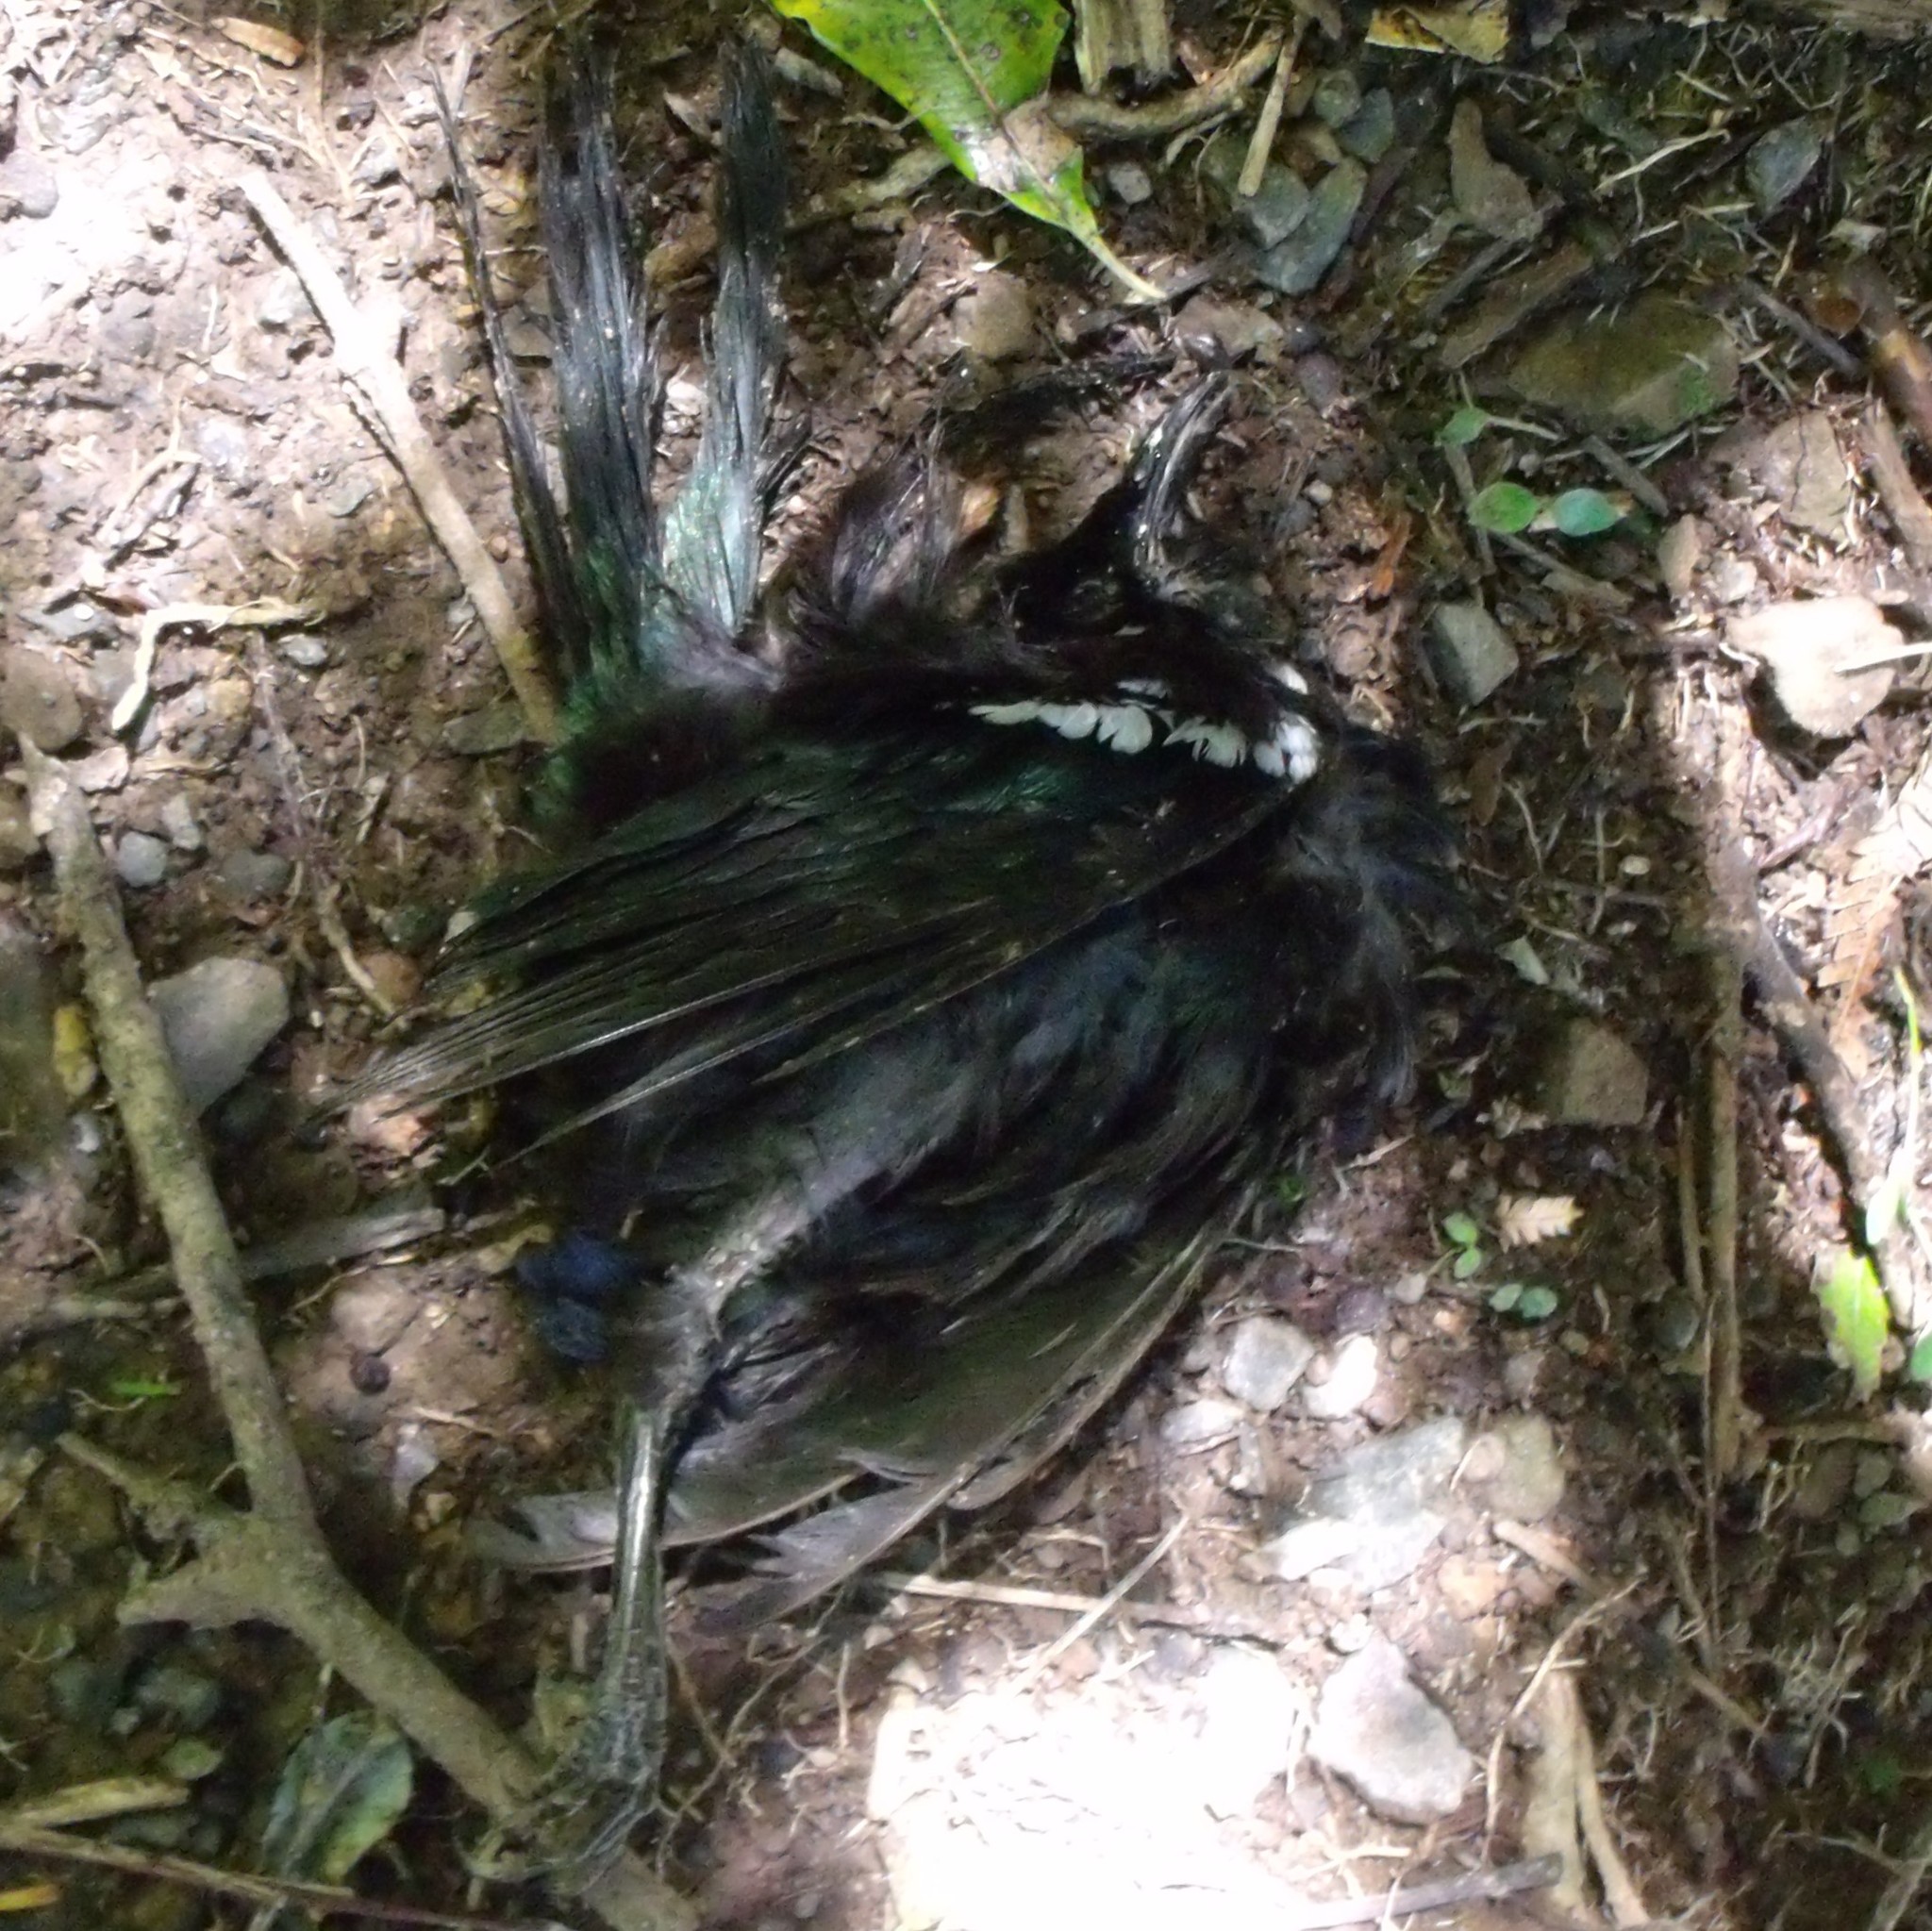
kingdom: Animalia
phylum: Chordata
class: Aves
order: Passeriformes
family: Meliphagidae
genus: Prosthemadera
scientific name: Prosthemadera novaeseelandiae
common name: Tui
